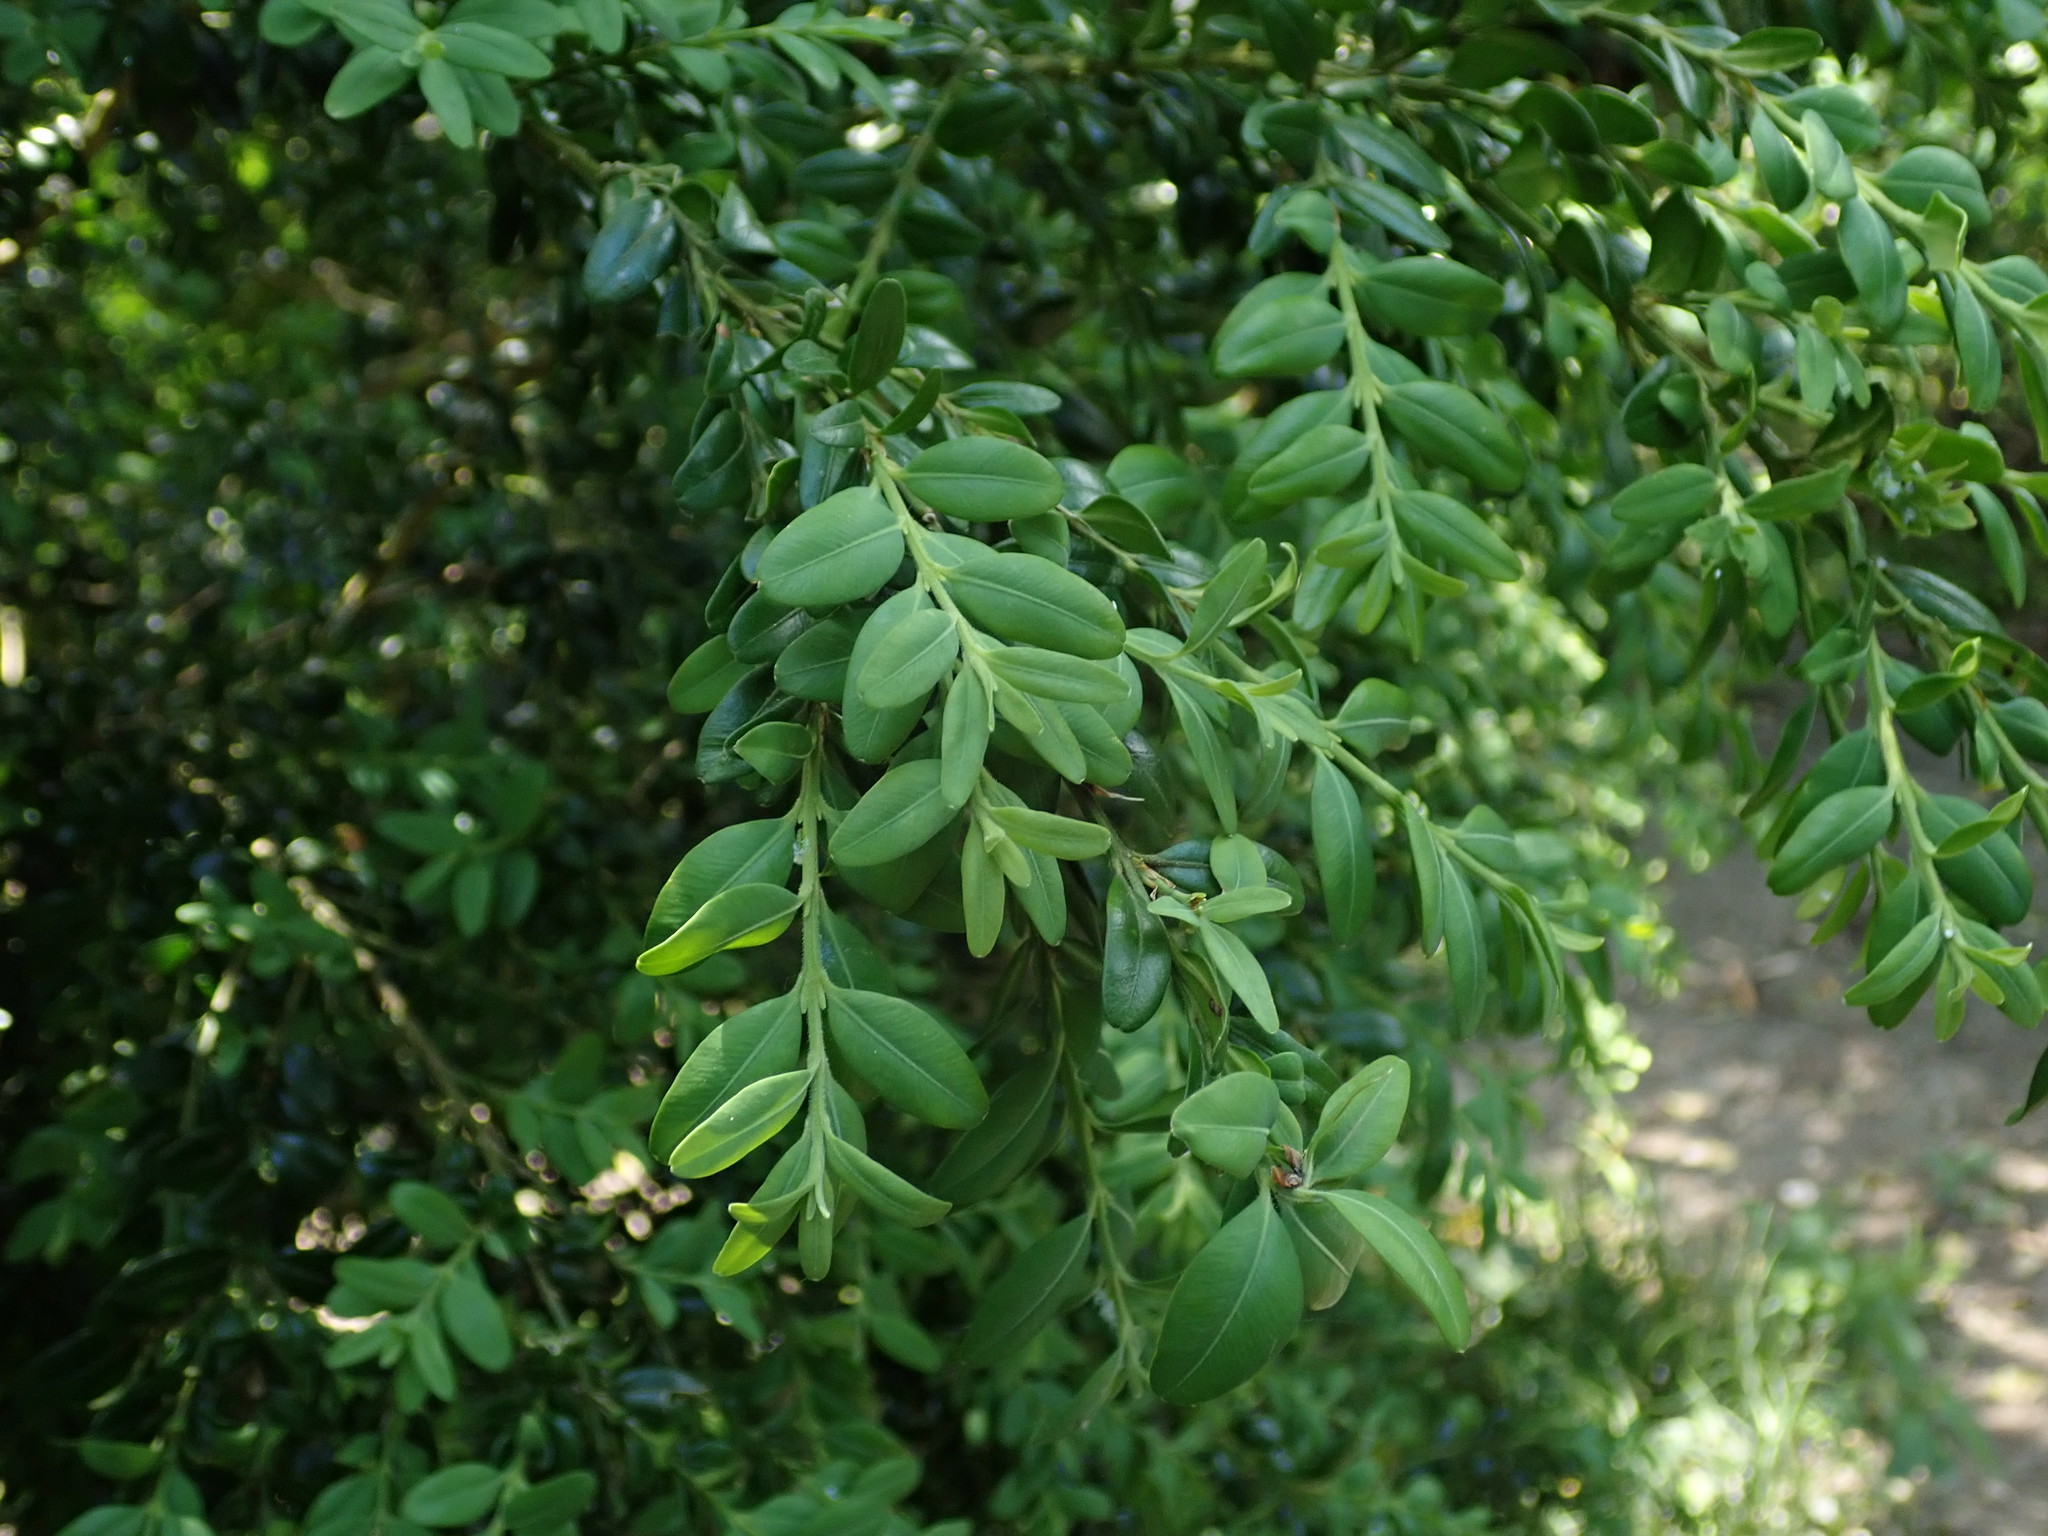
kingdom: Plantae
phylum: Tracheophyta
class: Magnoliopsida
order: Buxales
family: Buxaceae
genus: Buxus
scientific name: Buxus sempervirens
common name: Box
